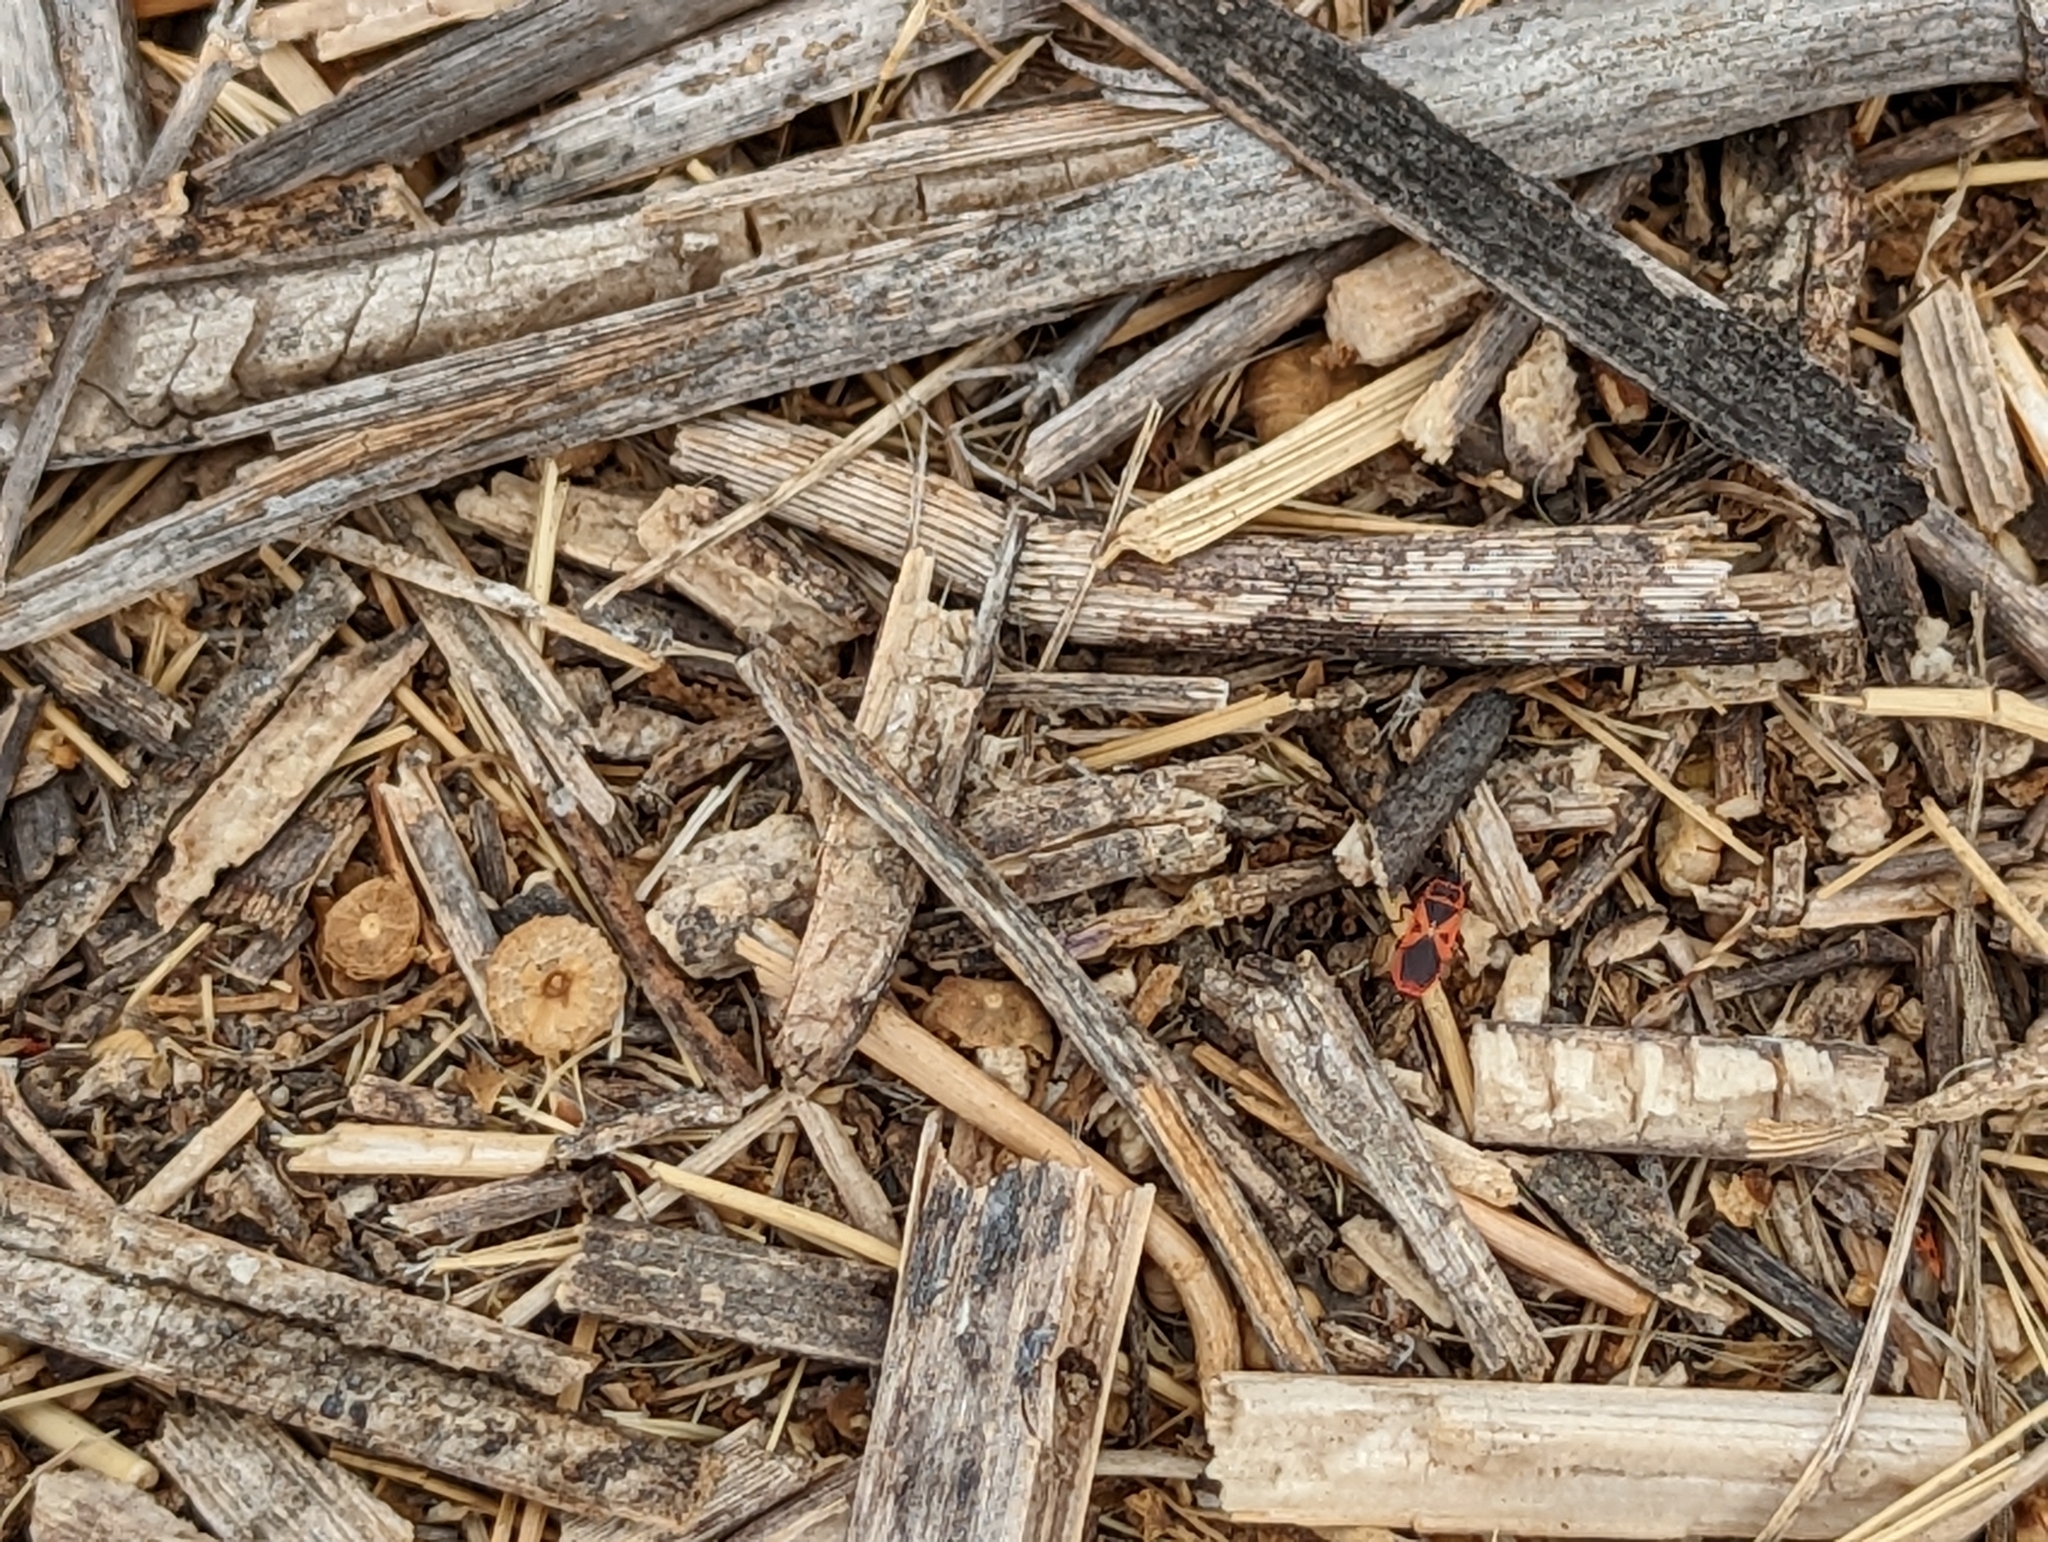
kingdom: Animalia
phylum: Arthropoda
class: Insecta
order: Hemiptera
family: Pyrrhocoridae
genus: Scantius
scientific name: Scantius aegyptius
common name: Red bug
